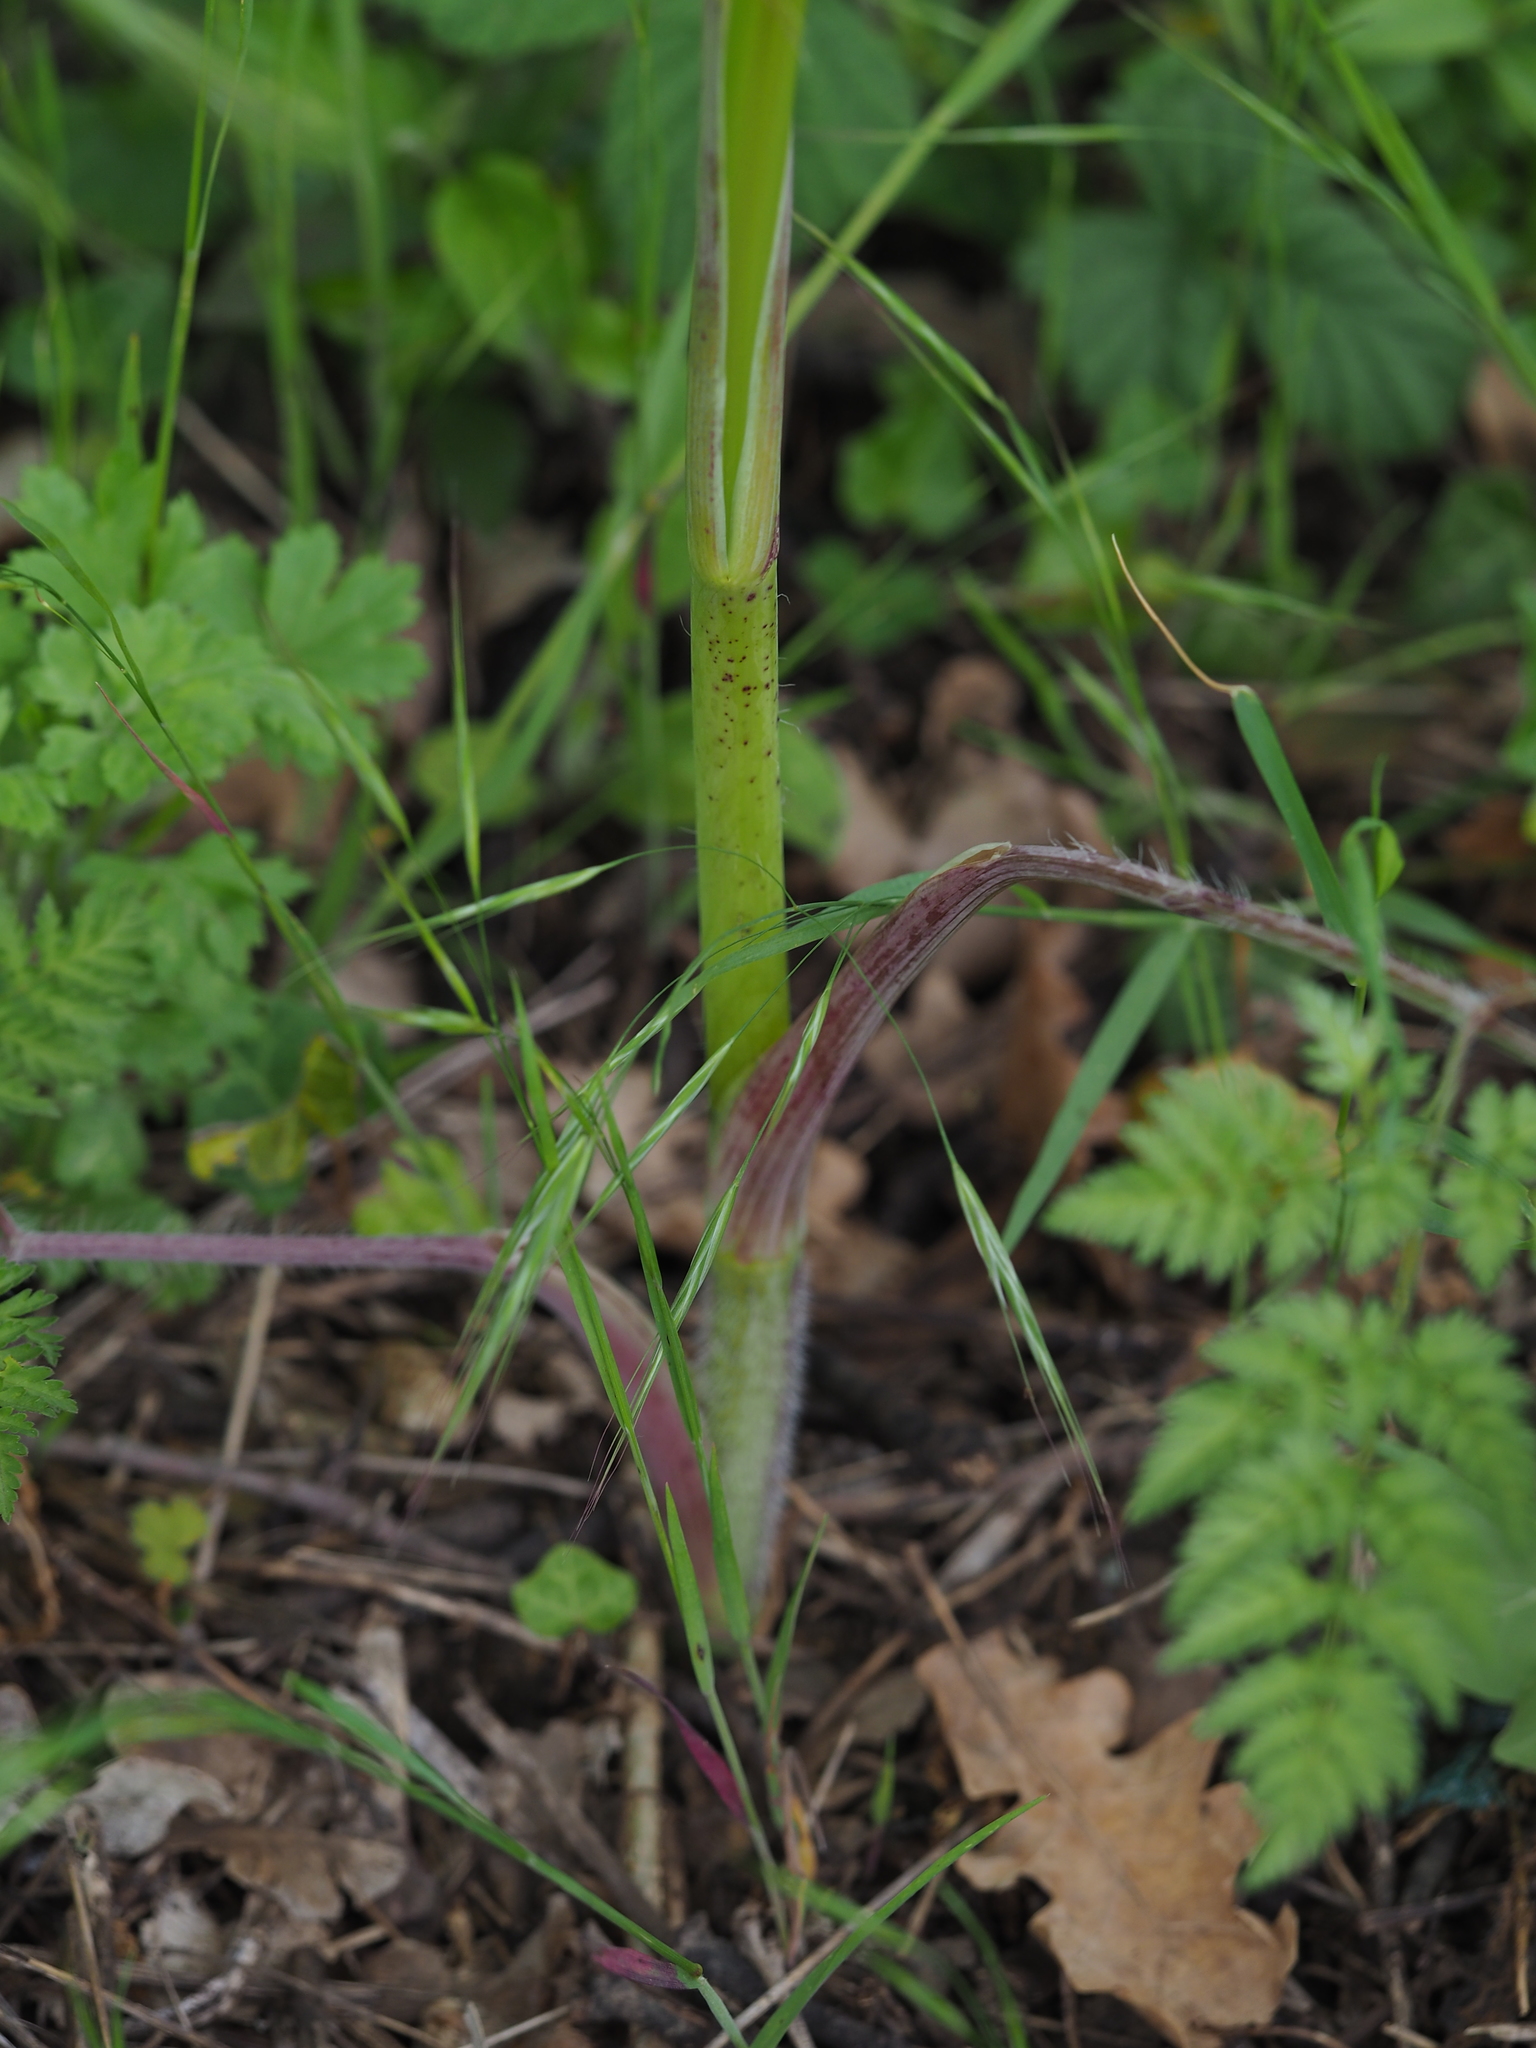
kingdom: Plantae
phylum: Tracheophyta
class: Magnoliopsida
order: Apiales
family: Apiaceae
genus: Chaerophyllum
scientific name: Chaerophyllum bulbosum
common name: Bulbous chervil
